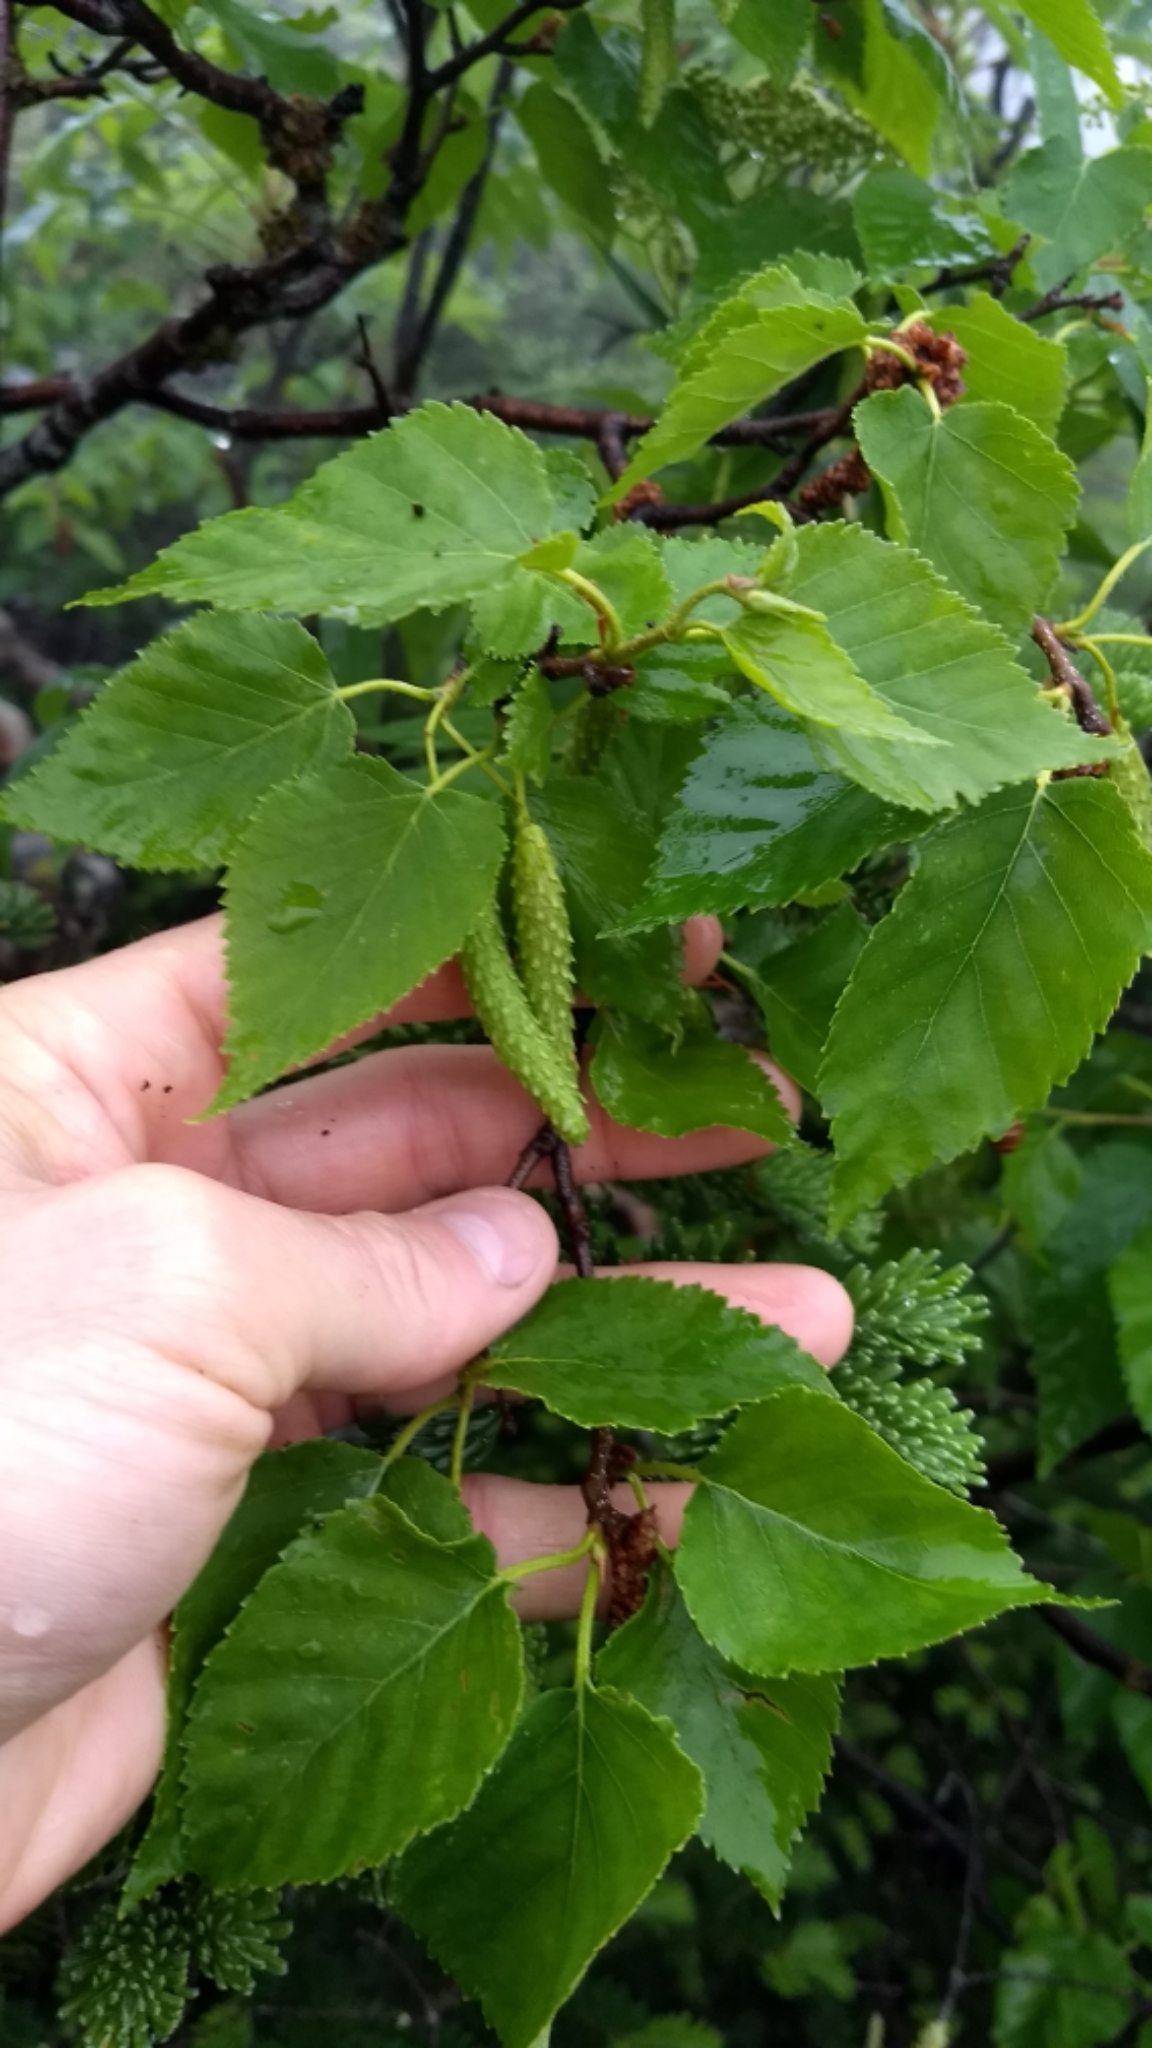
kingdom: Plantae
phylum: Tracheophyta
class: Magnoliopsida
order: Fagales
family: Betulaceae
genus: Betula
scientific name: Betula cordifolia
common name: Mountain white birch
